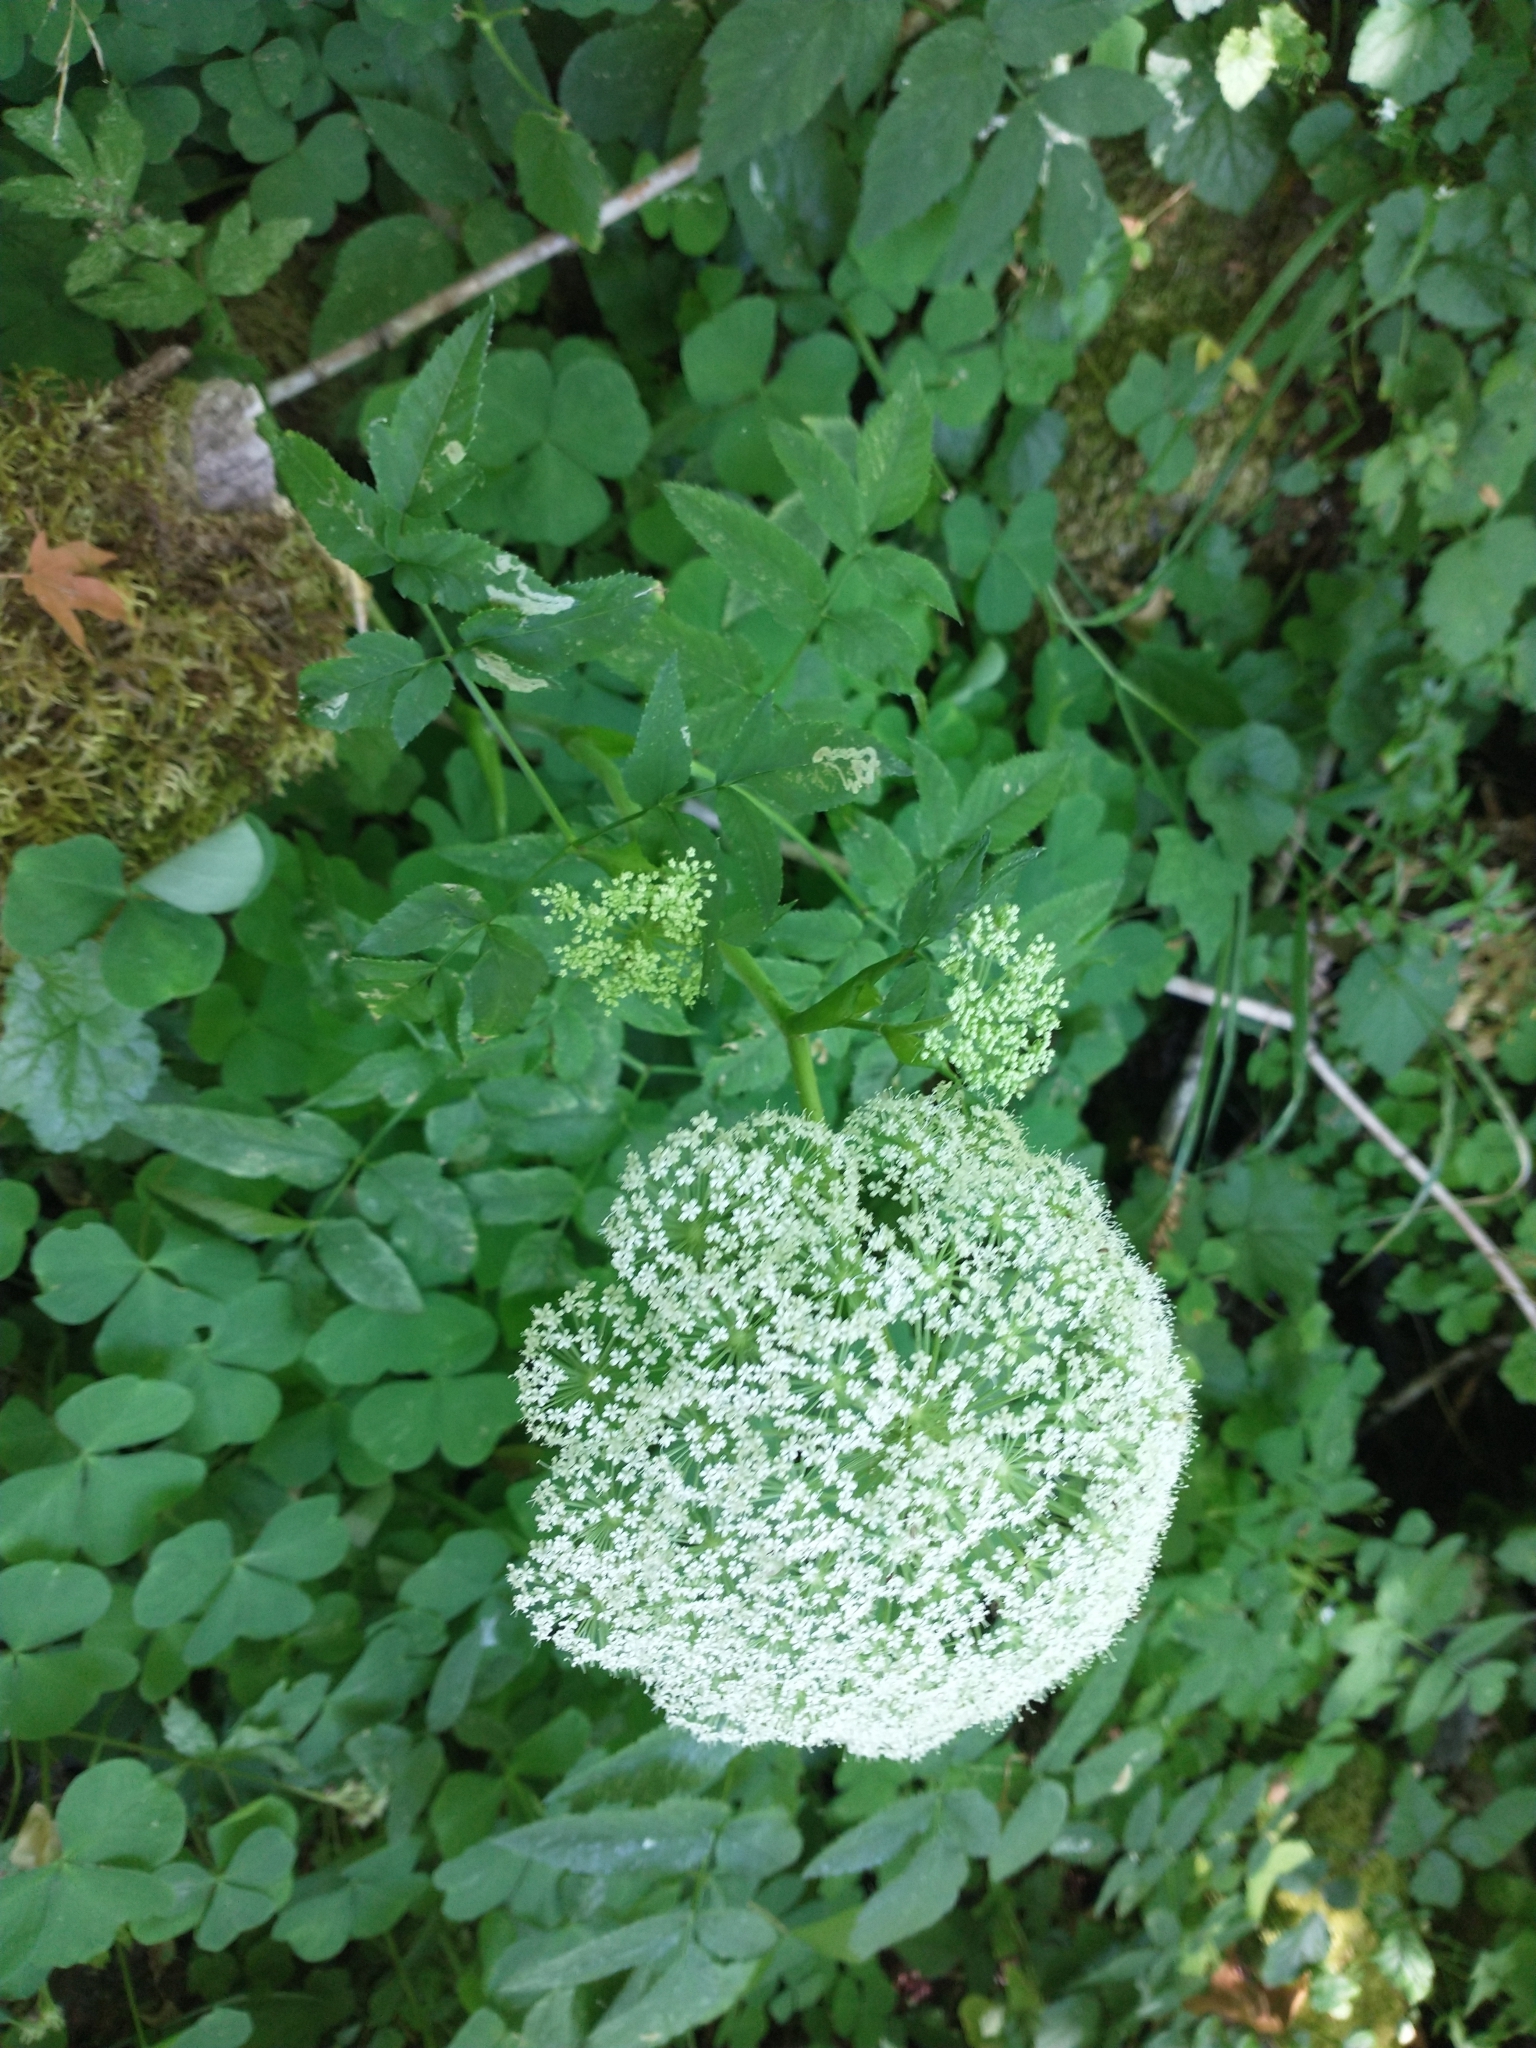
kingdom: Plantae
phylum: Tracheophyta
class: Magnoliopsida
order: Apiales
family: Apiaceae
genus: Angelica
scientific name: Angelica genuflexa
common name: Kneeling angelica
